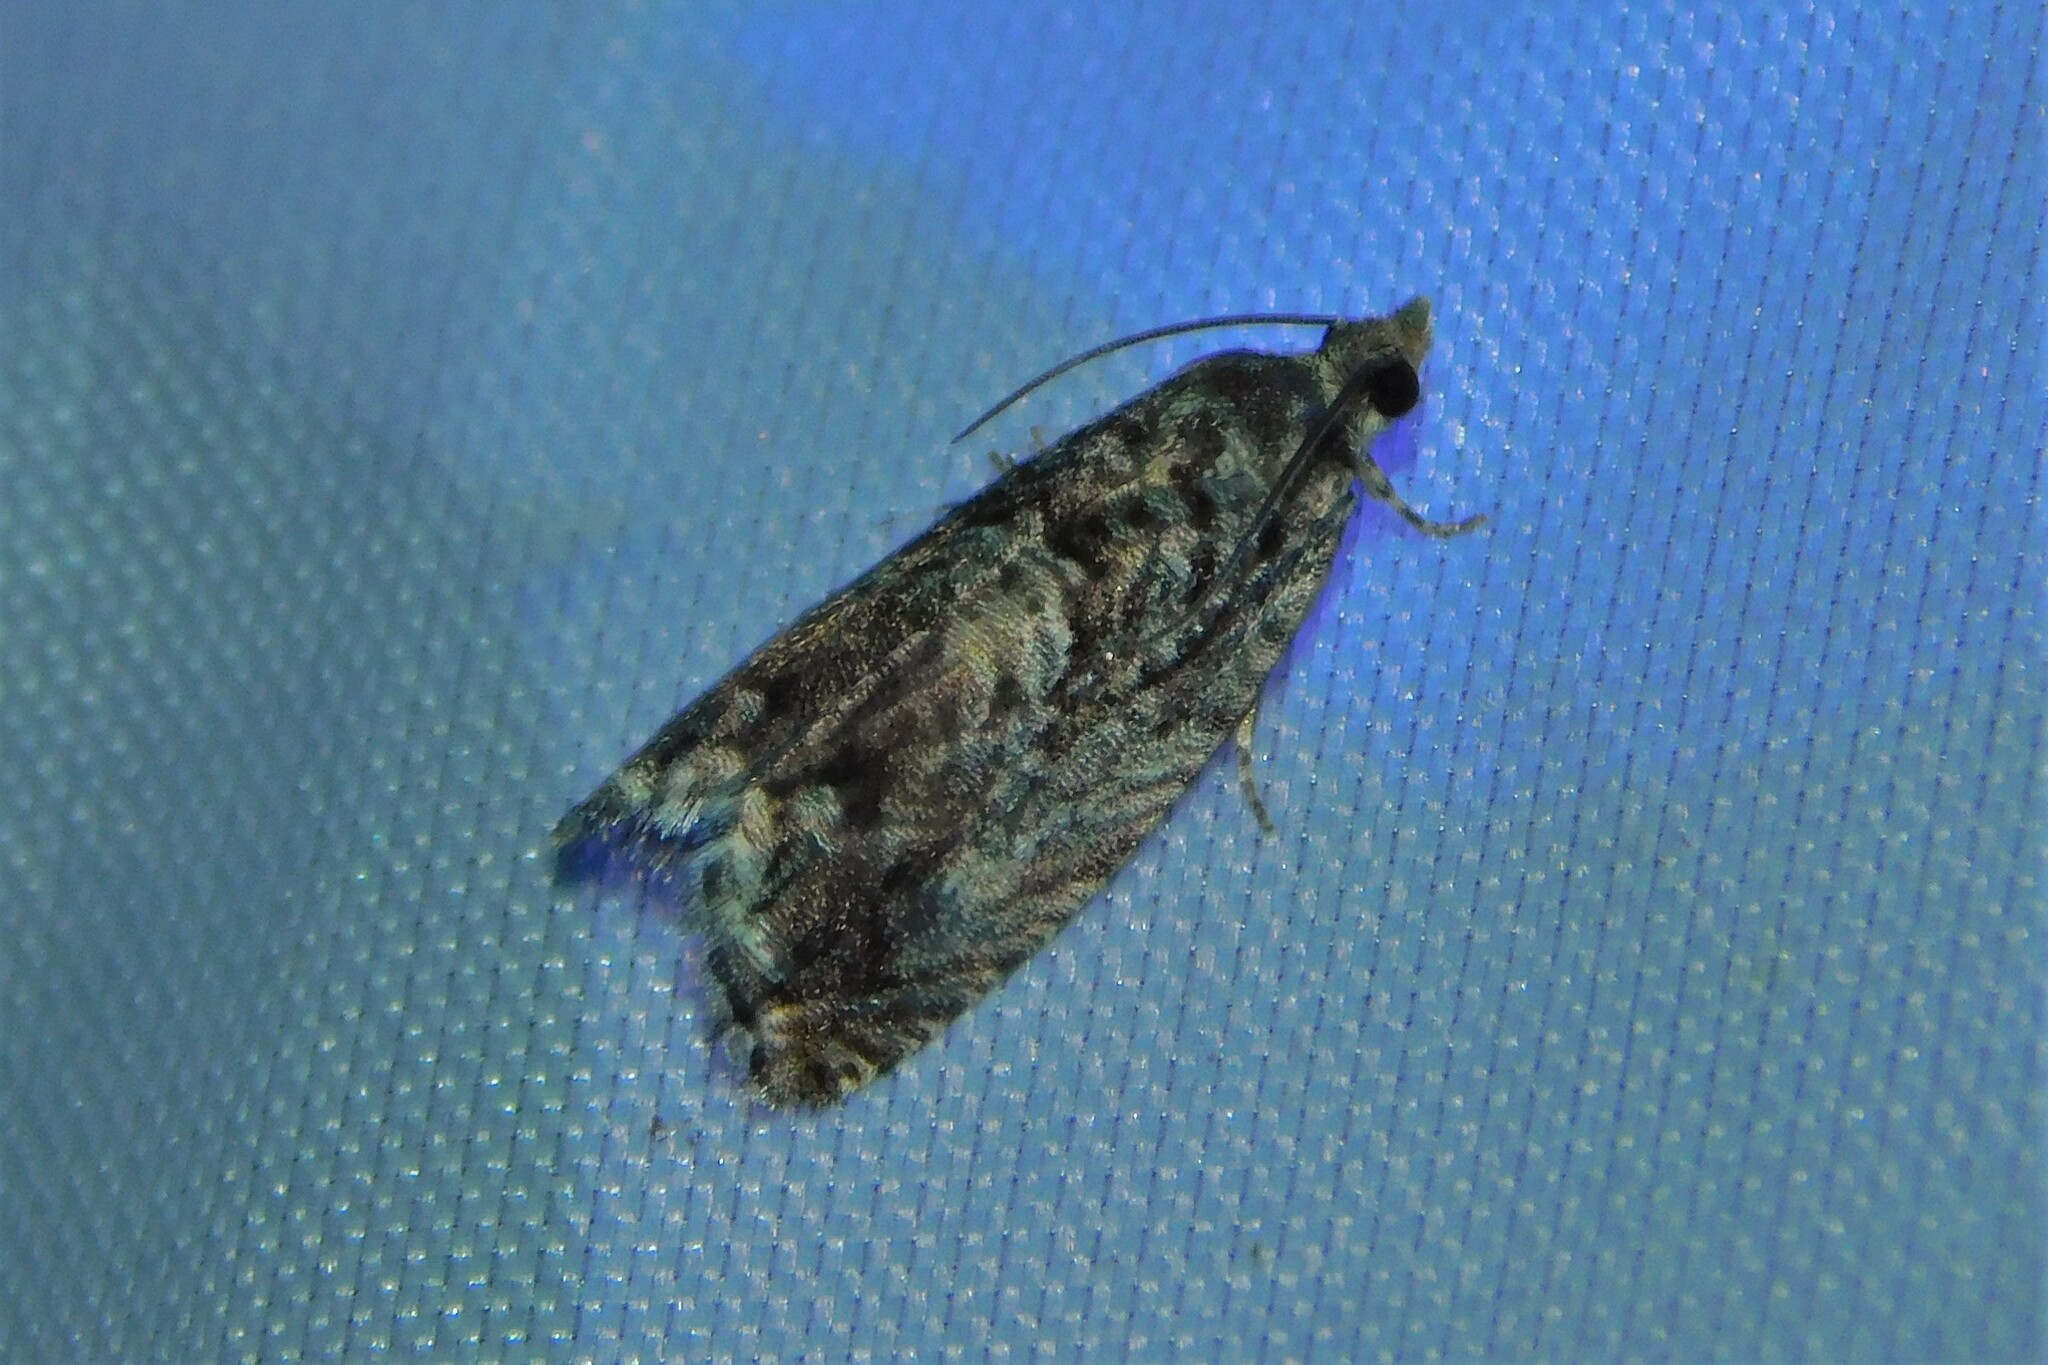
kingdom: Animalia
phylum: Arthropoda
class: Insecta
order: Lepidoptera
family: Tortricidae
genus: Cydia
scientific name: Cydia fagiglandana
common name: Large beech piercer
